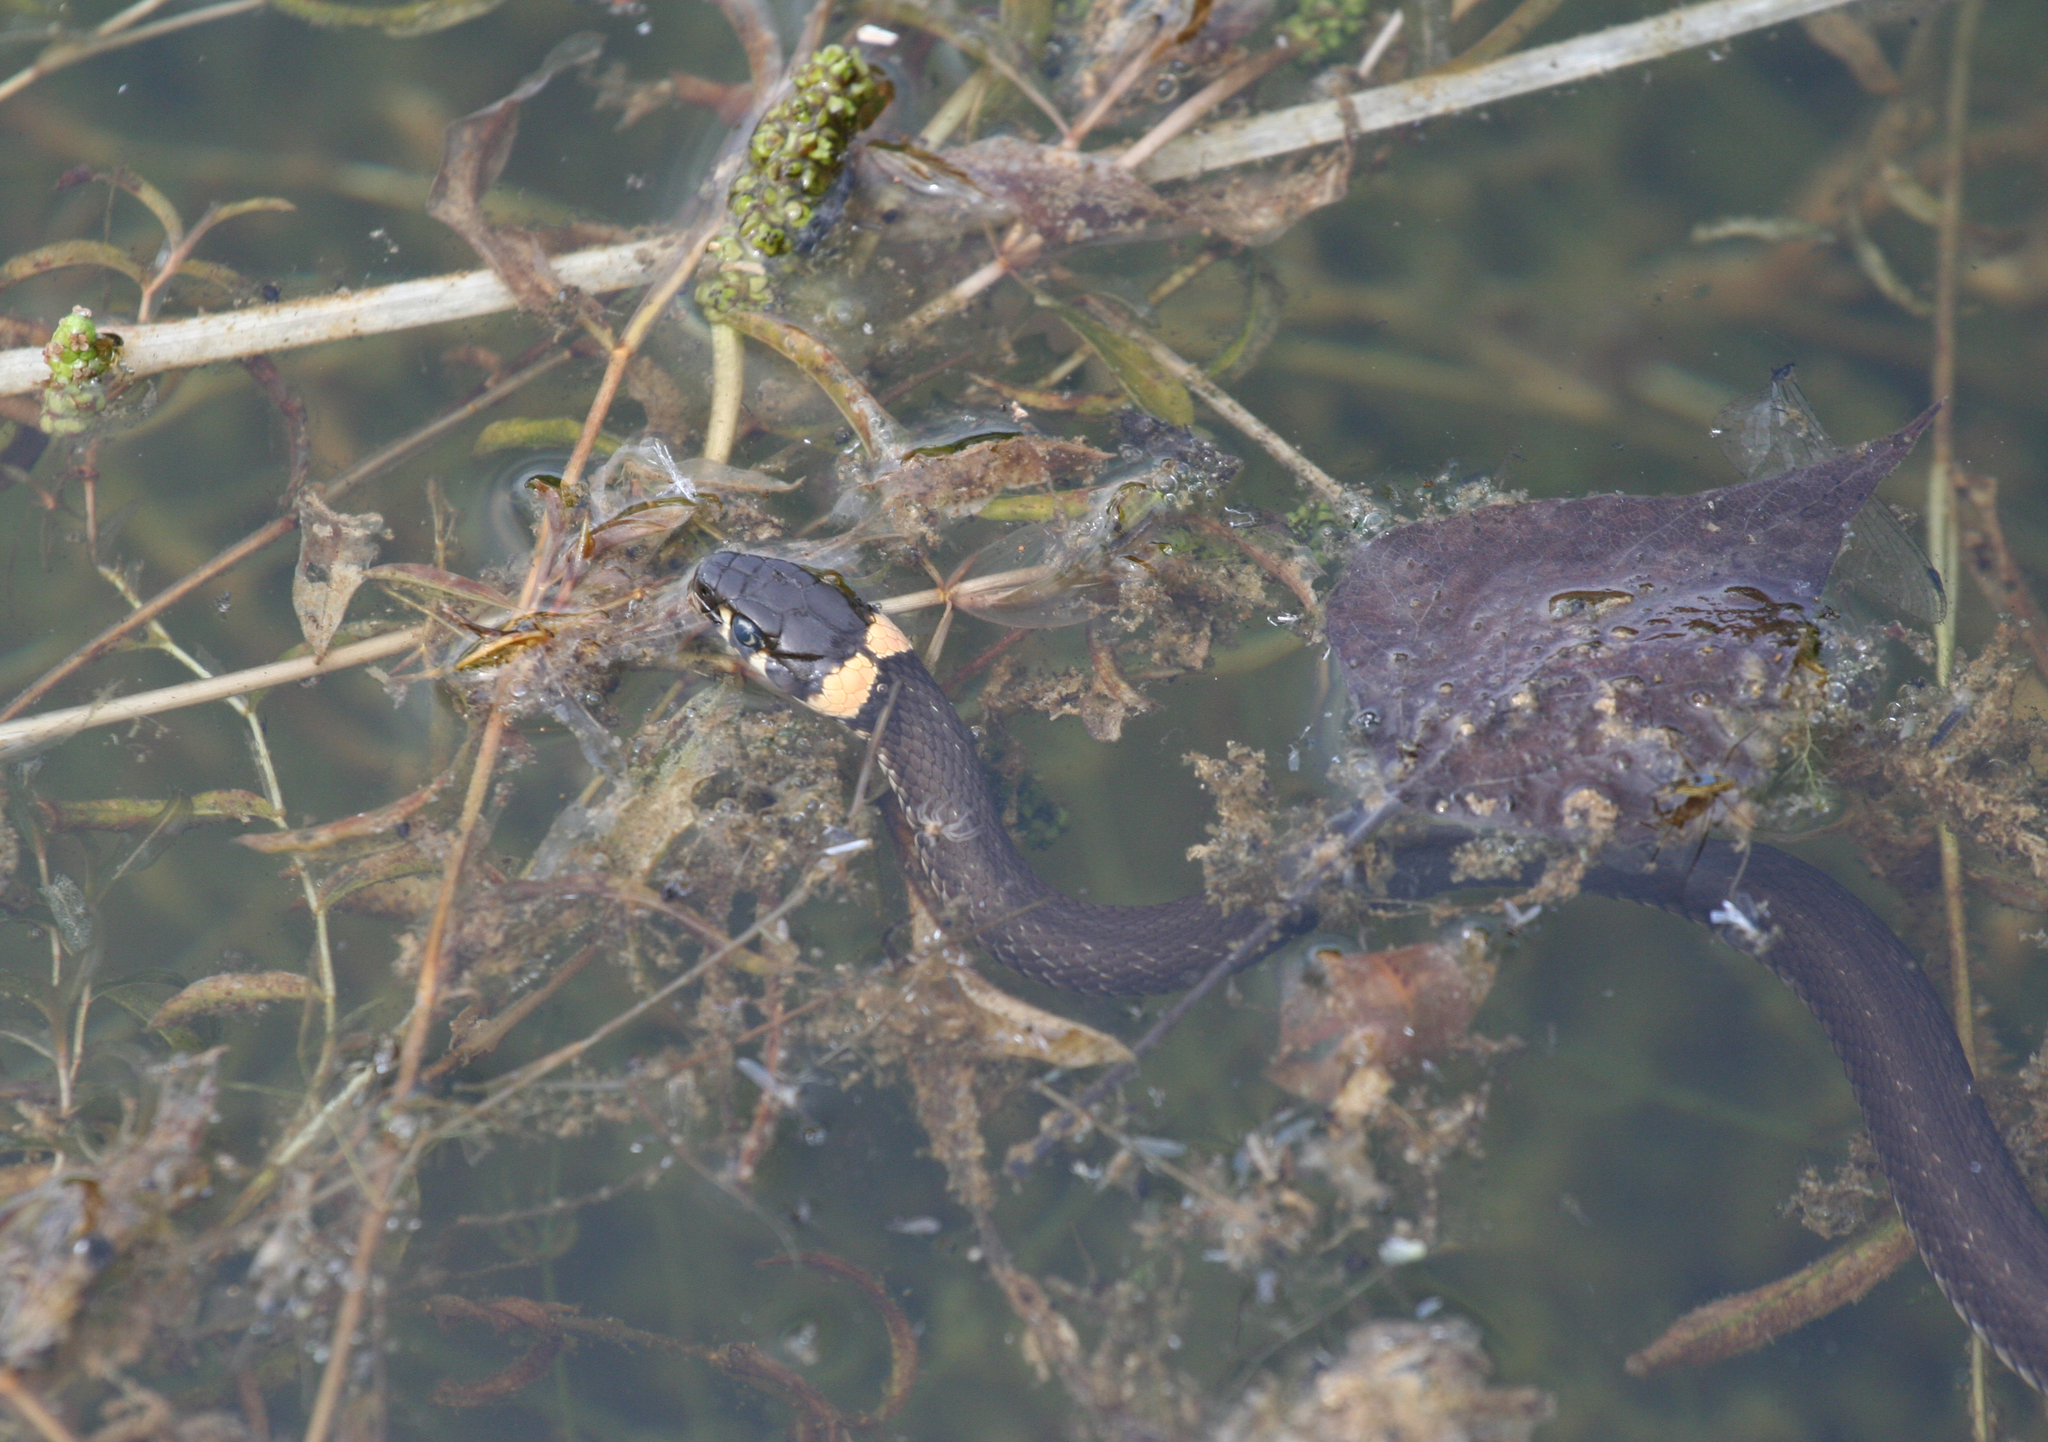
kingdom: Animalia
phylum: Chordata
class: Squamata
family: Colubridae
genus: Natrix
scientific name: Natrix natrix
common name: Grass snake
